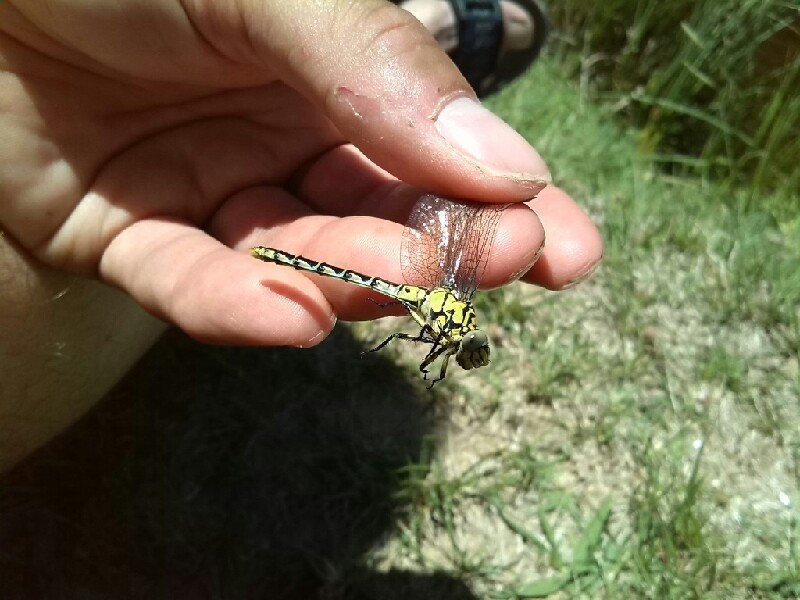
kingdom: Animalia
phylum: Arthropoda
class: Insecta
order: Odonata
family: Gomphidae
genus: Onychogomphus
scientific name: Onychogomphus forcipatus
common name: Small pincertail
